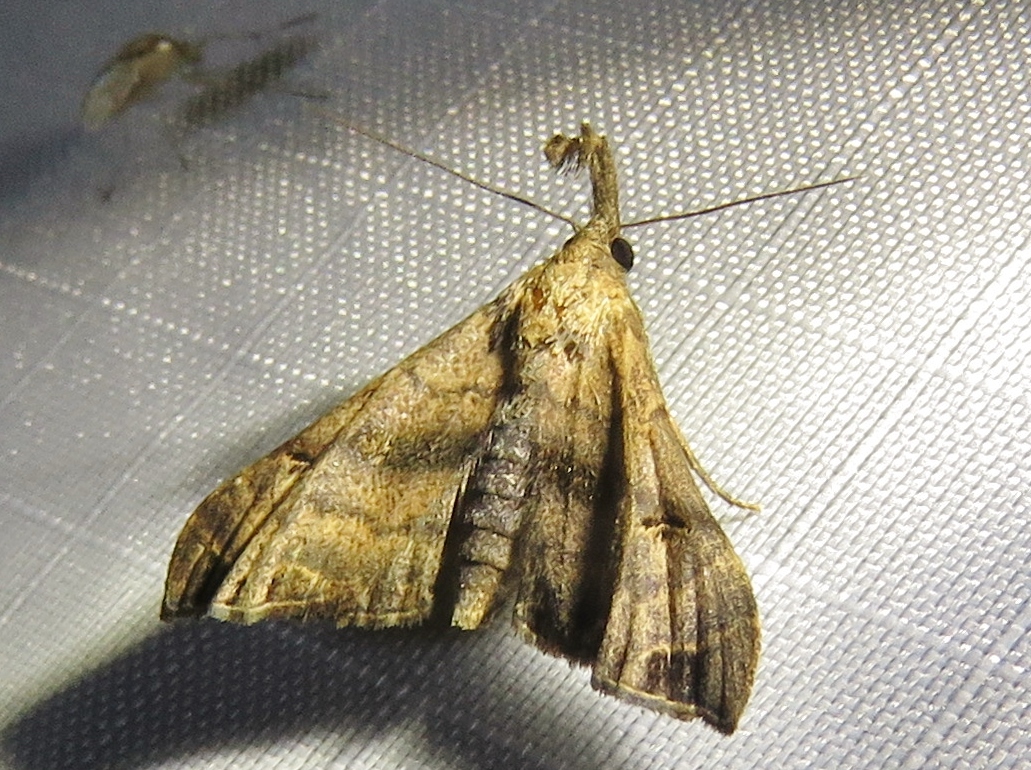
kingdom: Animalia
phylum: Arthropoda
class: Insecta
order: Lepidoptera
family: Erebidae
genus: Palthis
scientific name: Palthis asopialis
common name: Faint-spotted palthis moth
